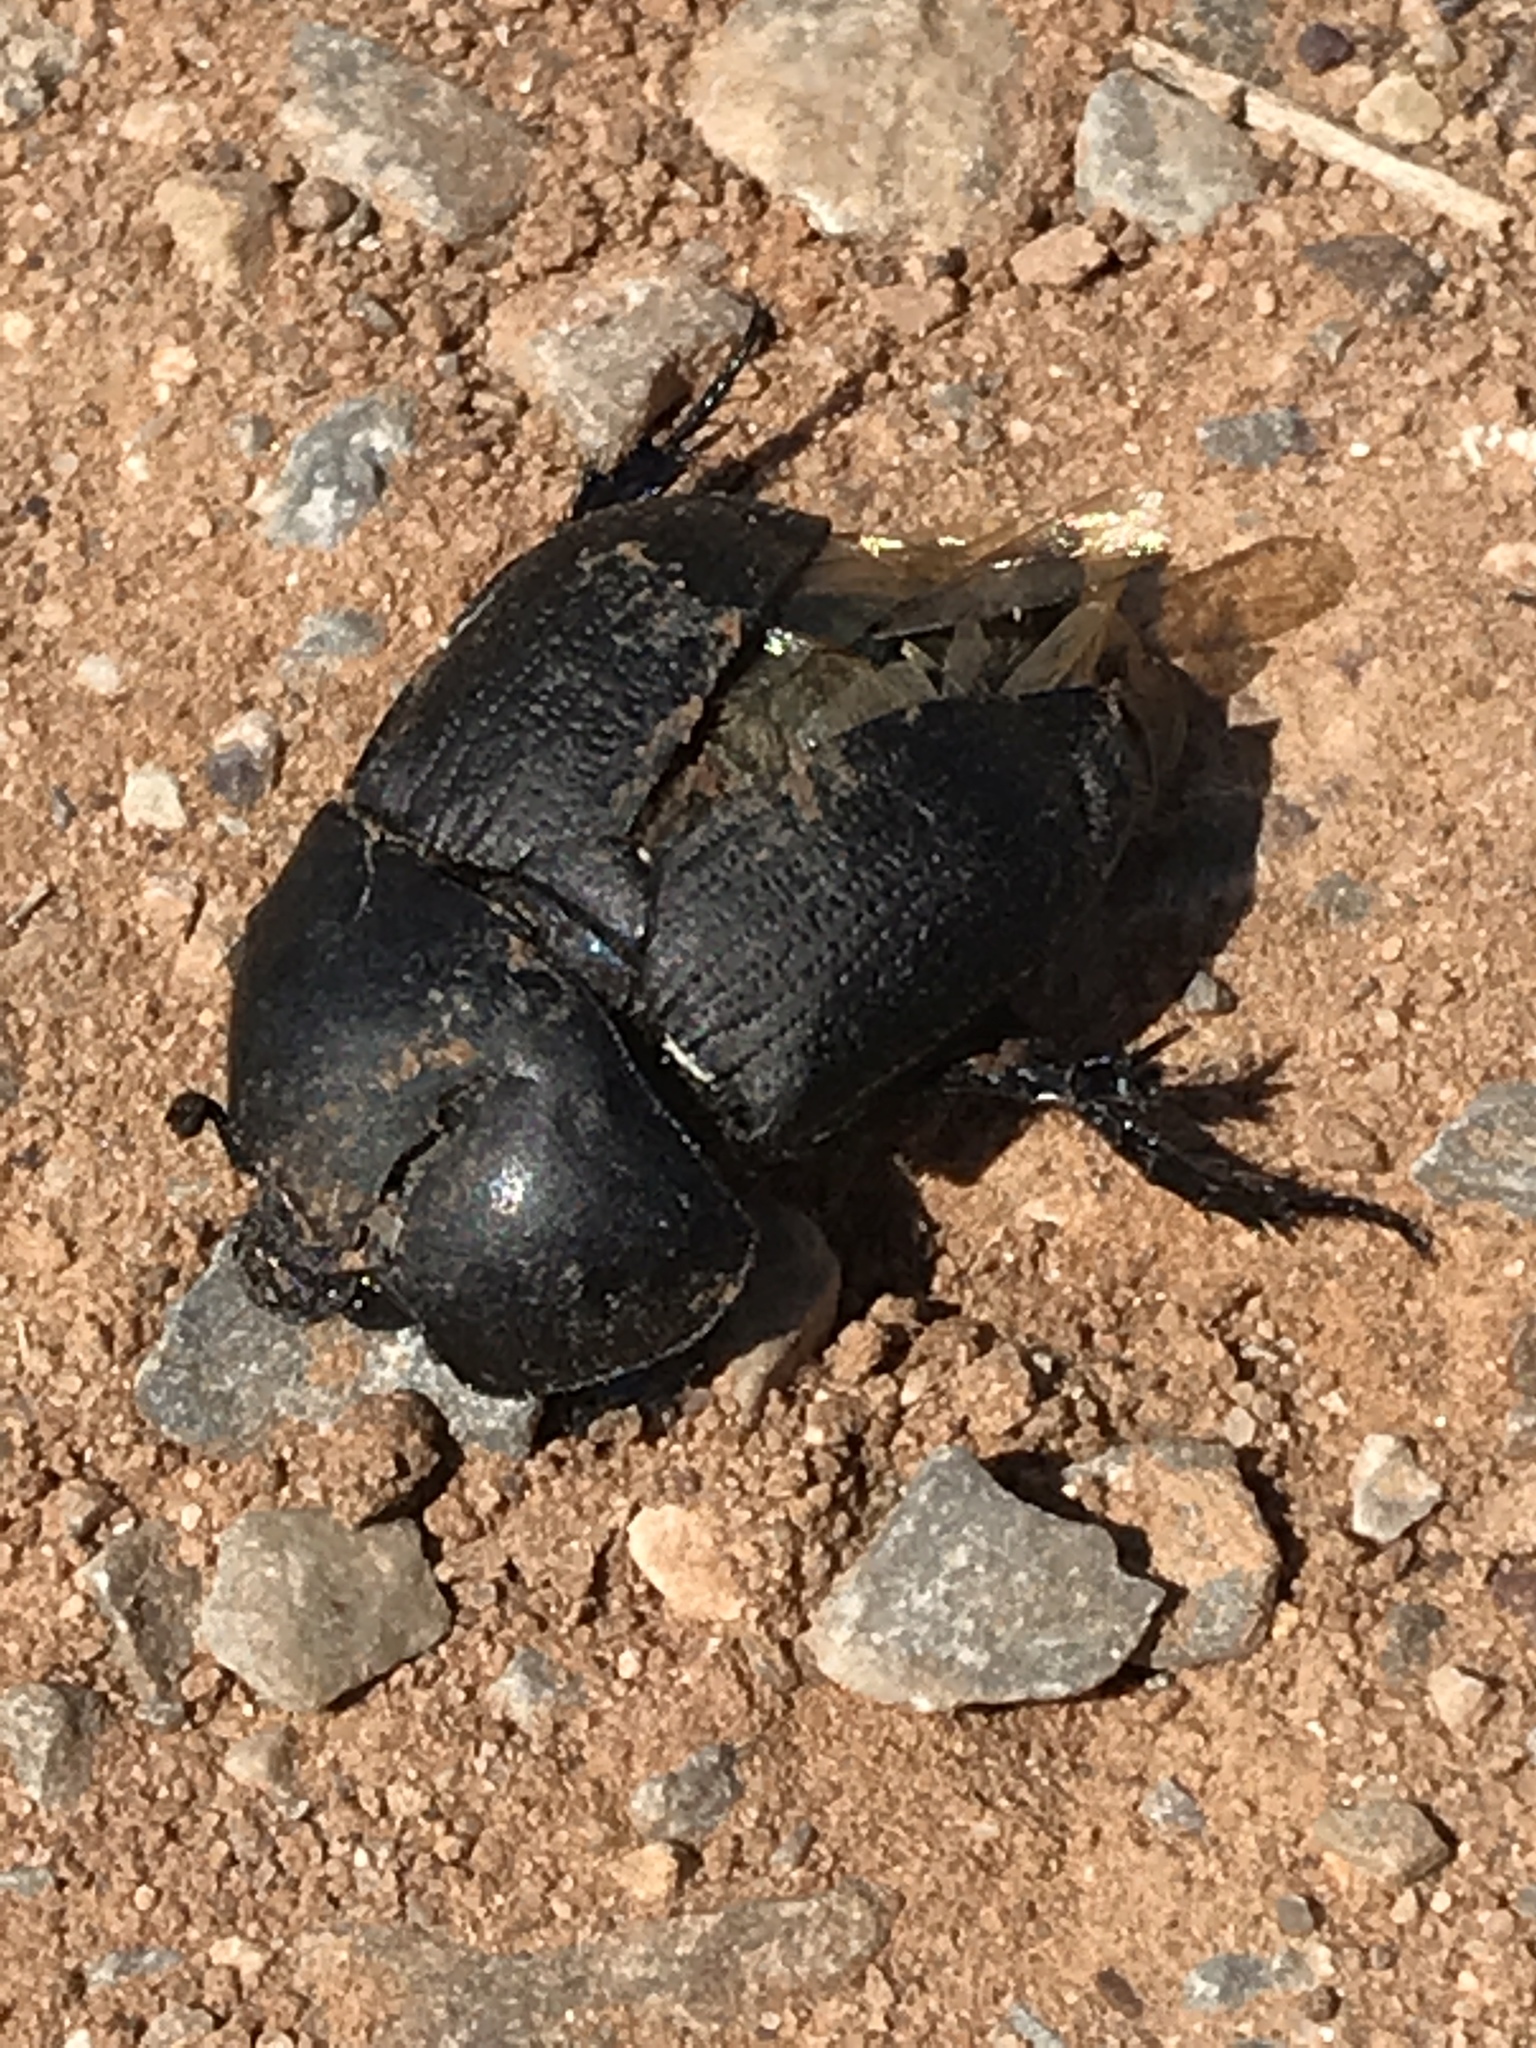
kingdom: Animalia
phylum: Arthropoda
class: Insecta
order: Coleoptera
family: Geotrupidae
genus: Geohowdenius
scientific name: Geohowdenius opacus
